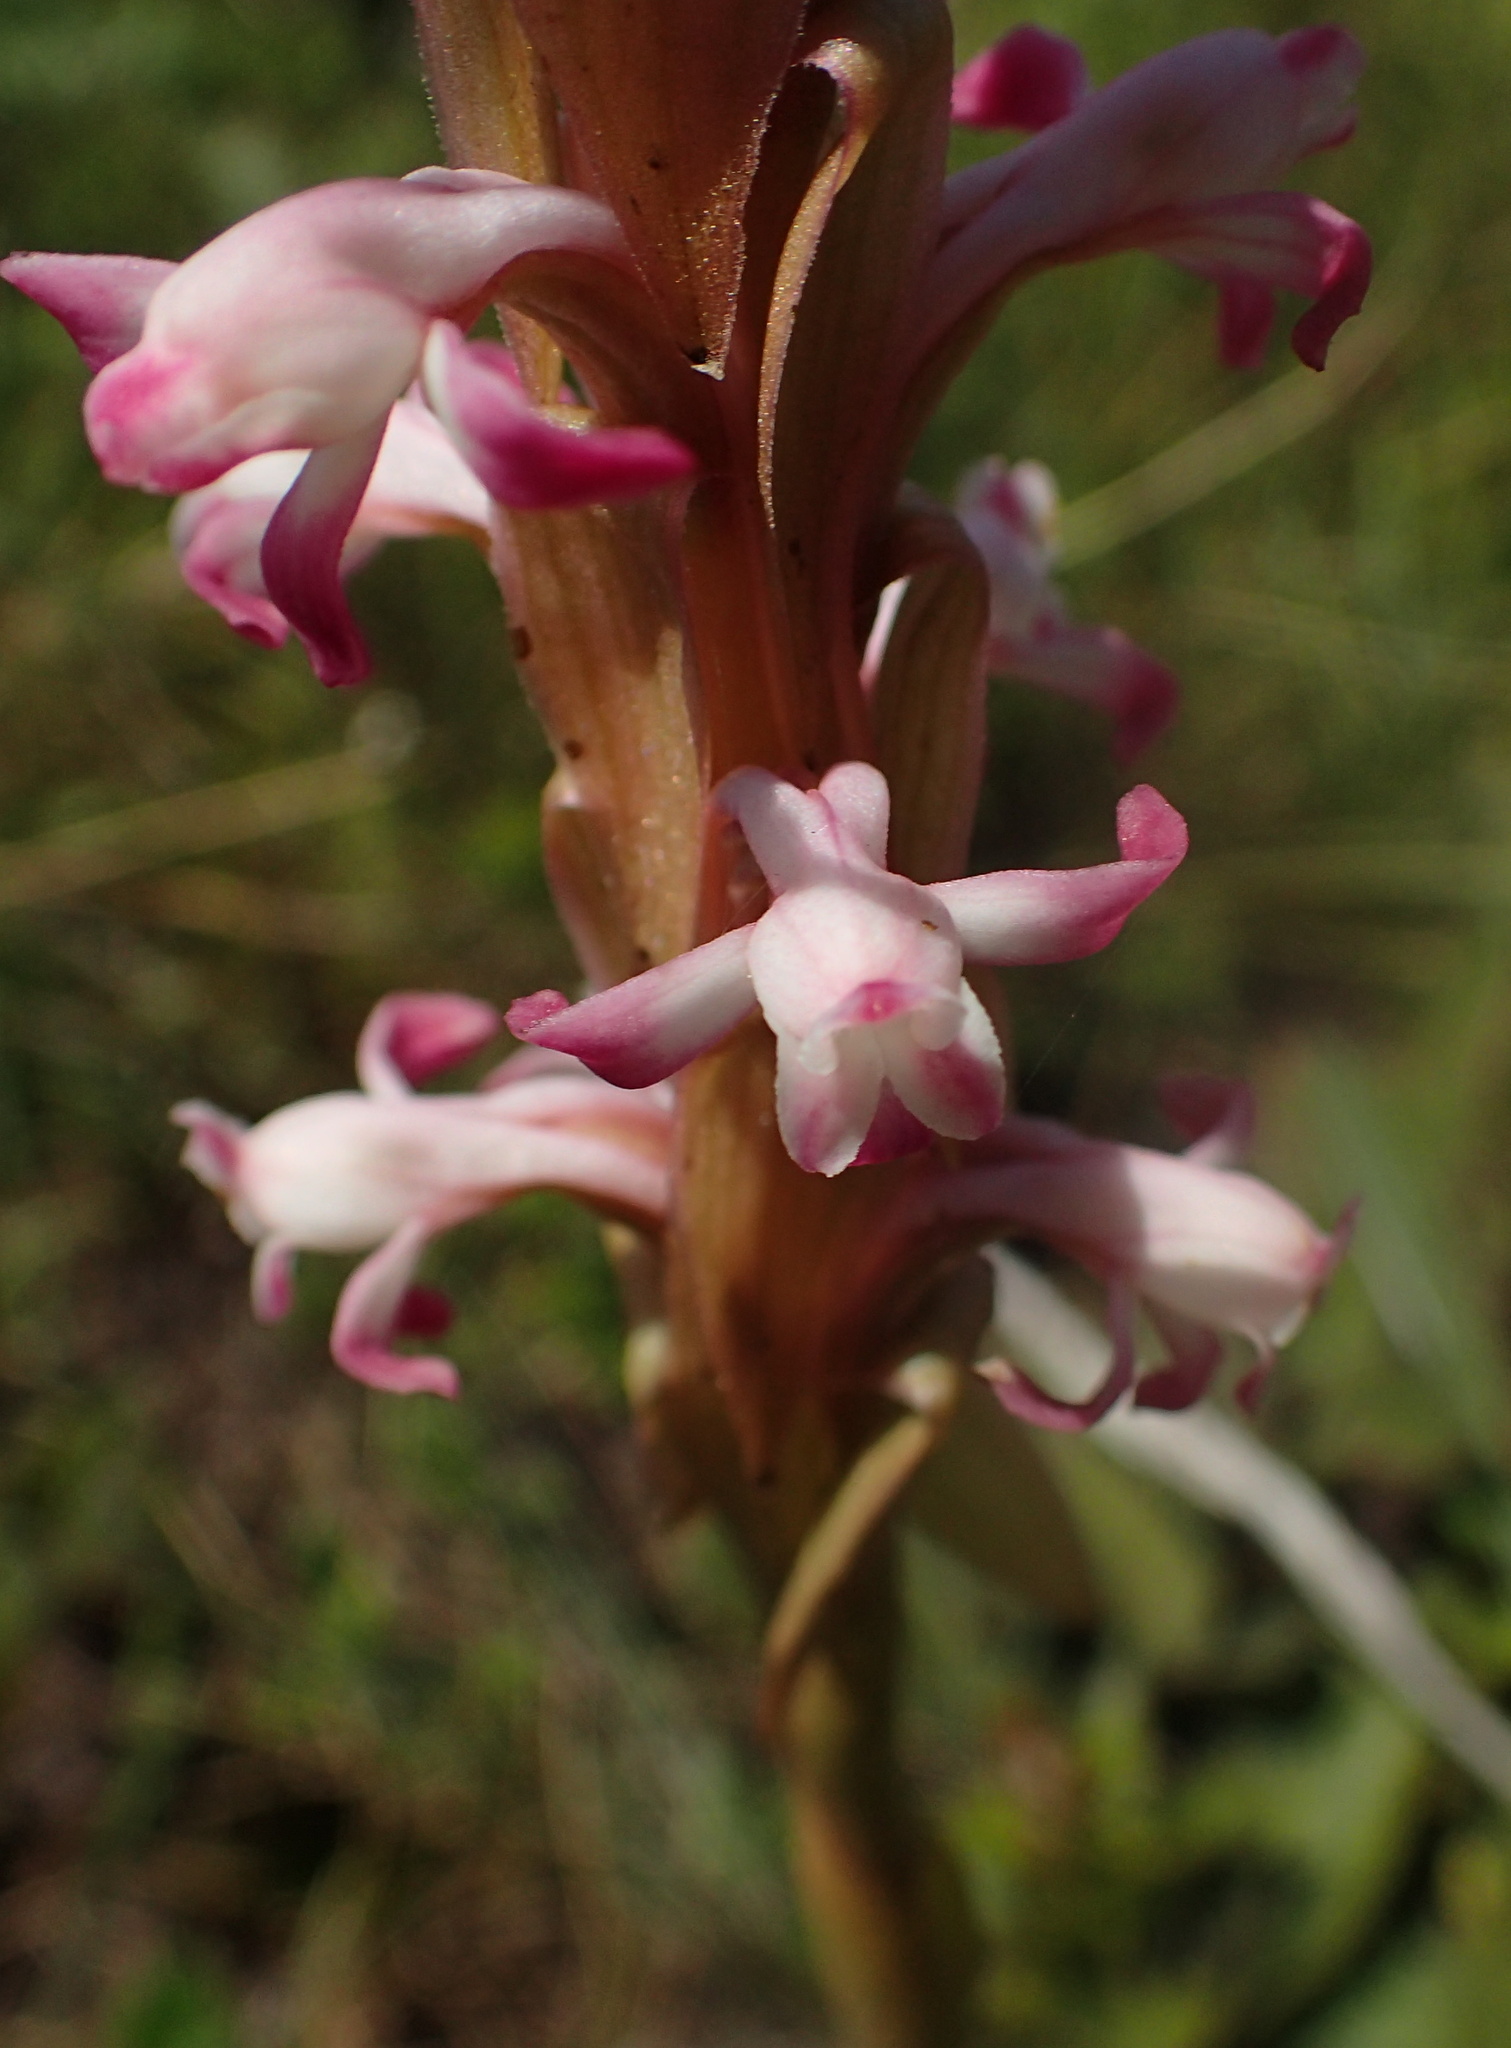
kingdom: Plantae
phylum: Tracheophyta
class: Liliopsida
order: Asparagales
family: Orchidaceae
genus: Satyrium
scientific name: Satyrium longicauda
